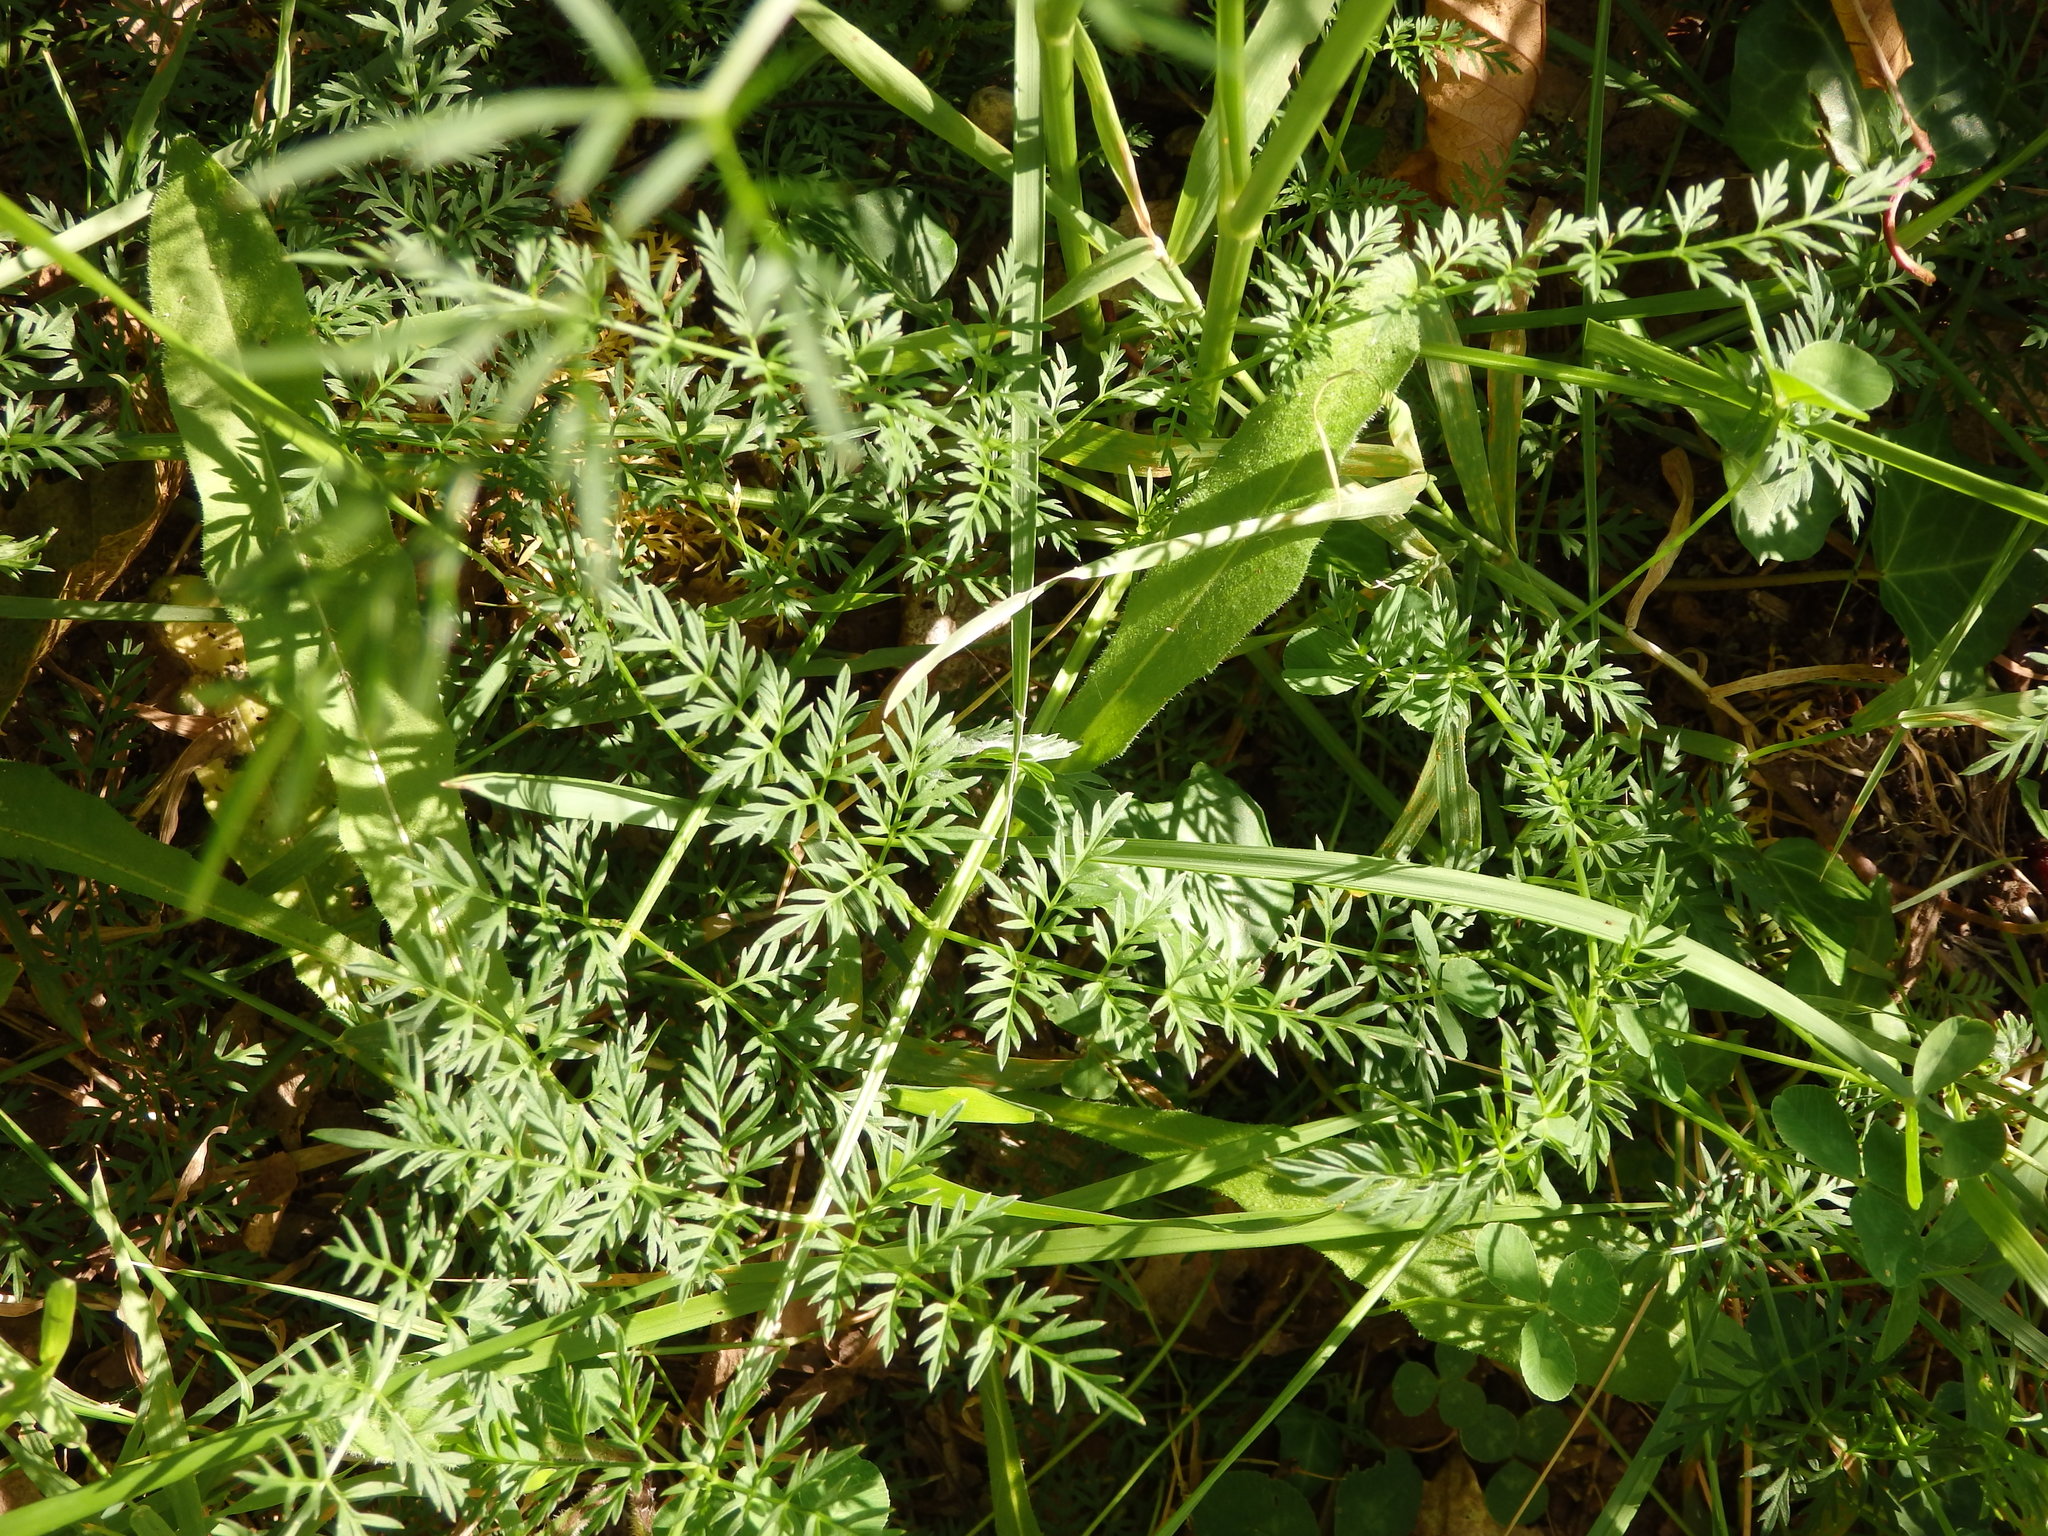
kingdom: Plantae
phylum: Tracheophyta
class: Magnoliopsida
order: Apiales
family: Apiaceae
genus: Selinum
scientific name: Selinum broteroi
